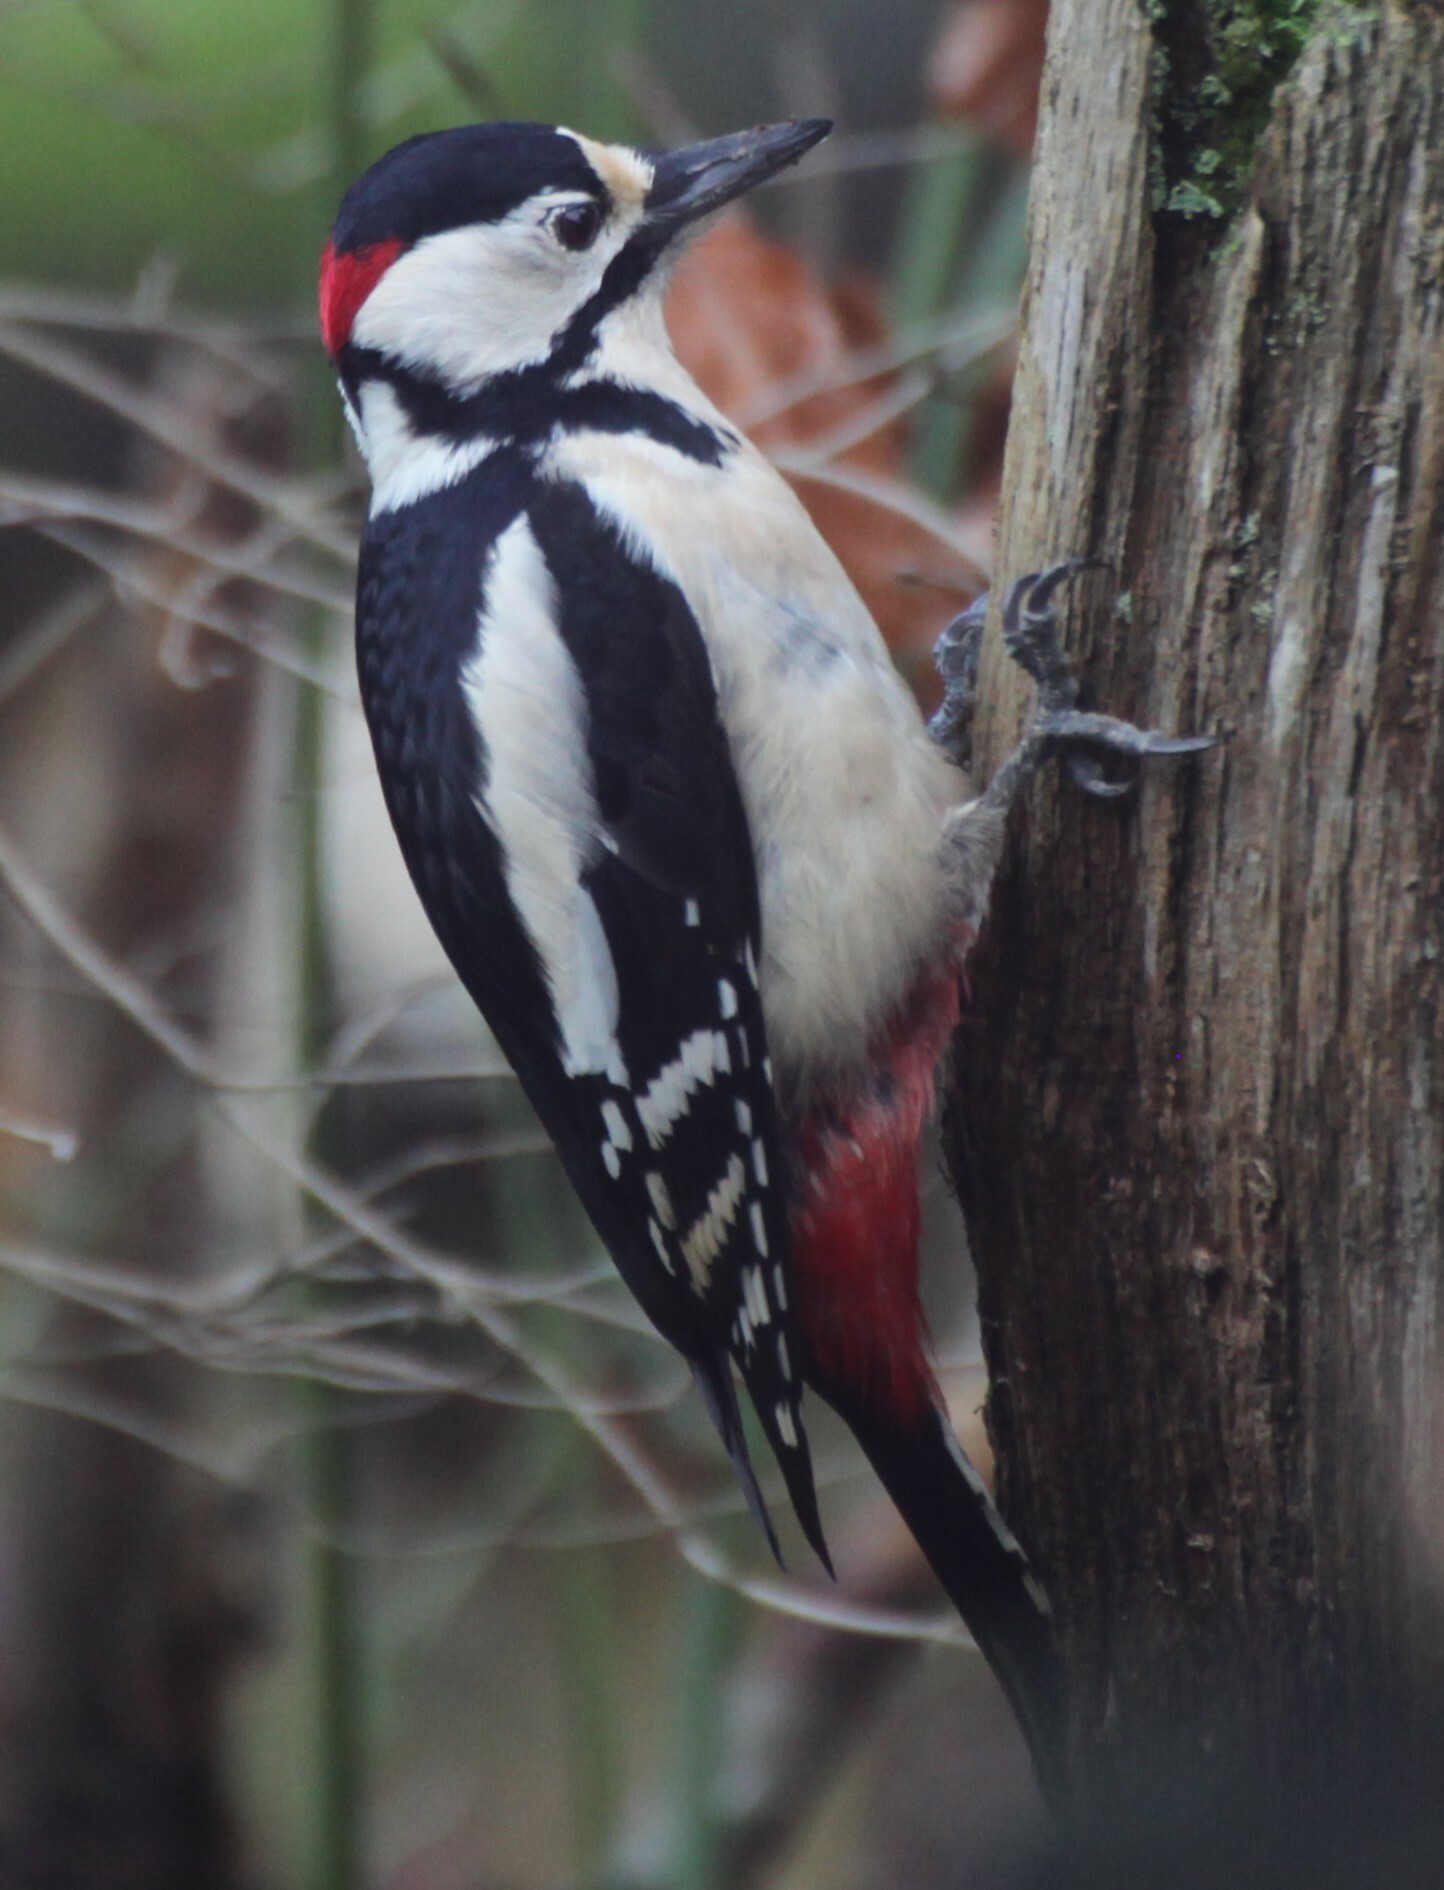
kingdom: Animalia
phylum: Chordata
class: Aves
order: Piciformes
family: Picidae
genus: Dendrocopos
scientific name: Dendrocopos major
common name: Great spotted woodpecker
